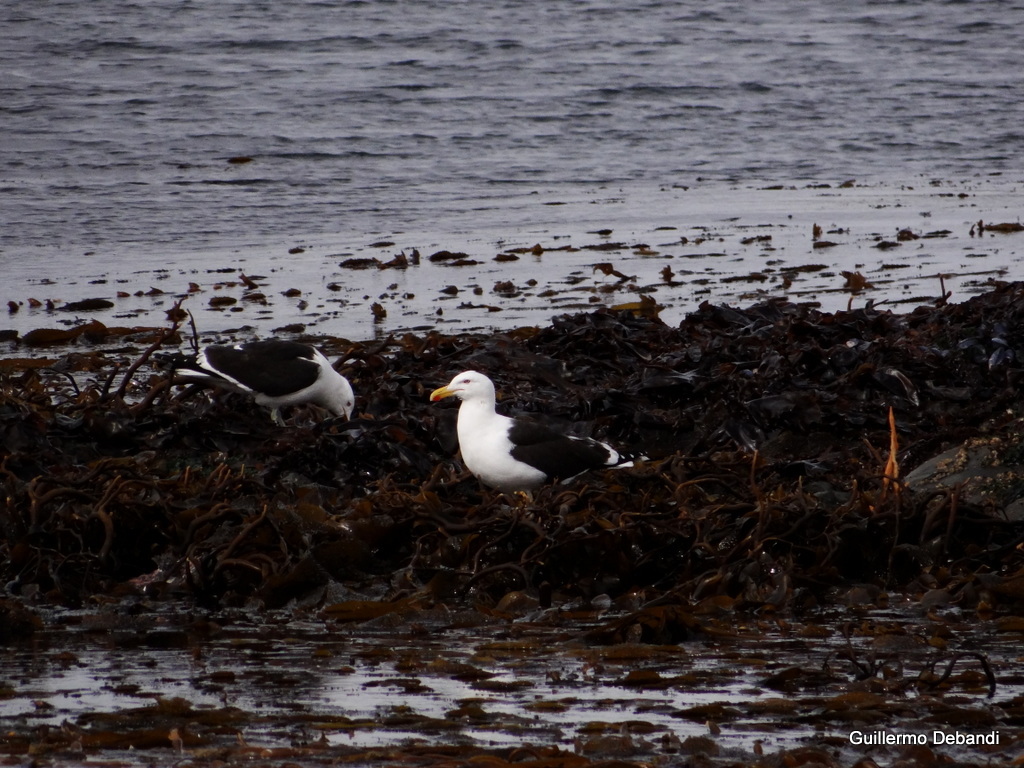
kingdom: Animalia
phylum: Chordata
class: Aves
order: Charadriiformes
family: Laridae
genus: Larus
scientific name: Larus dominicanus
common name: Kelp gull
